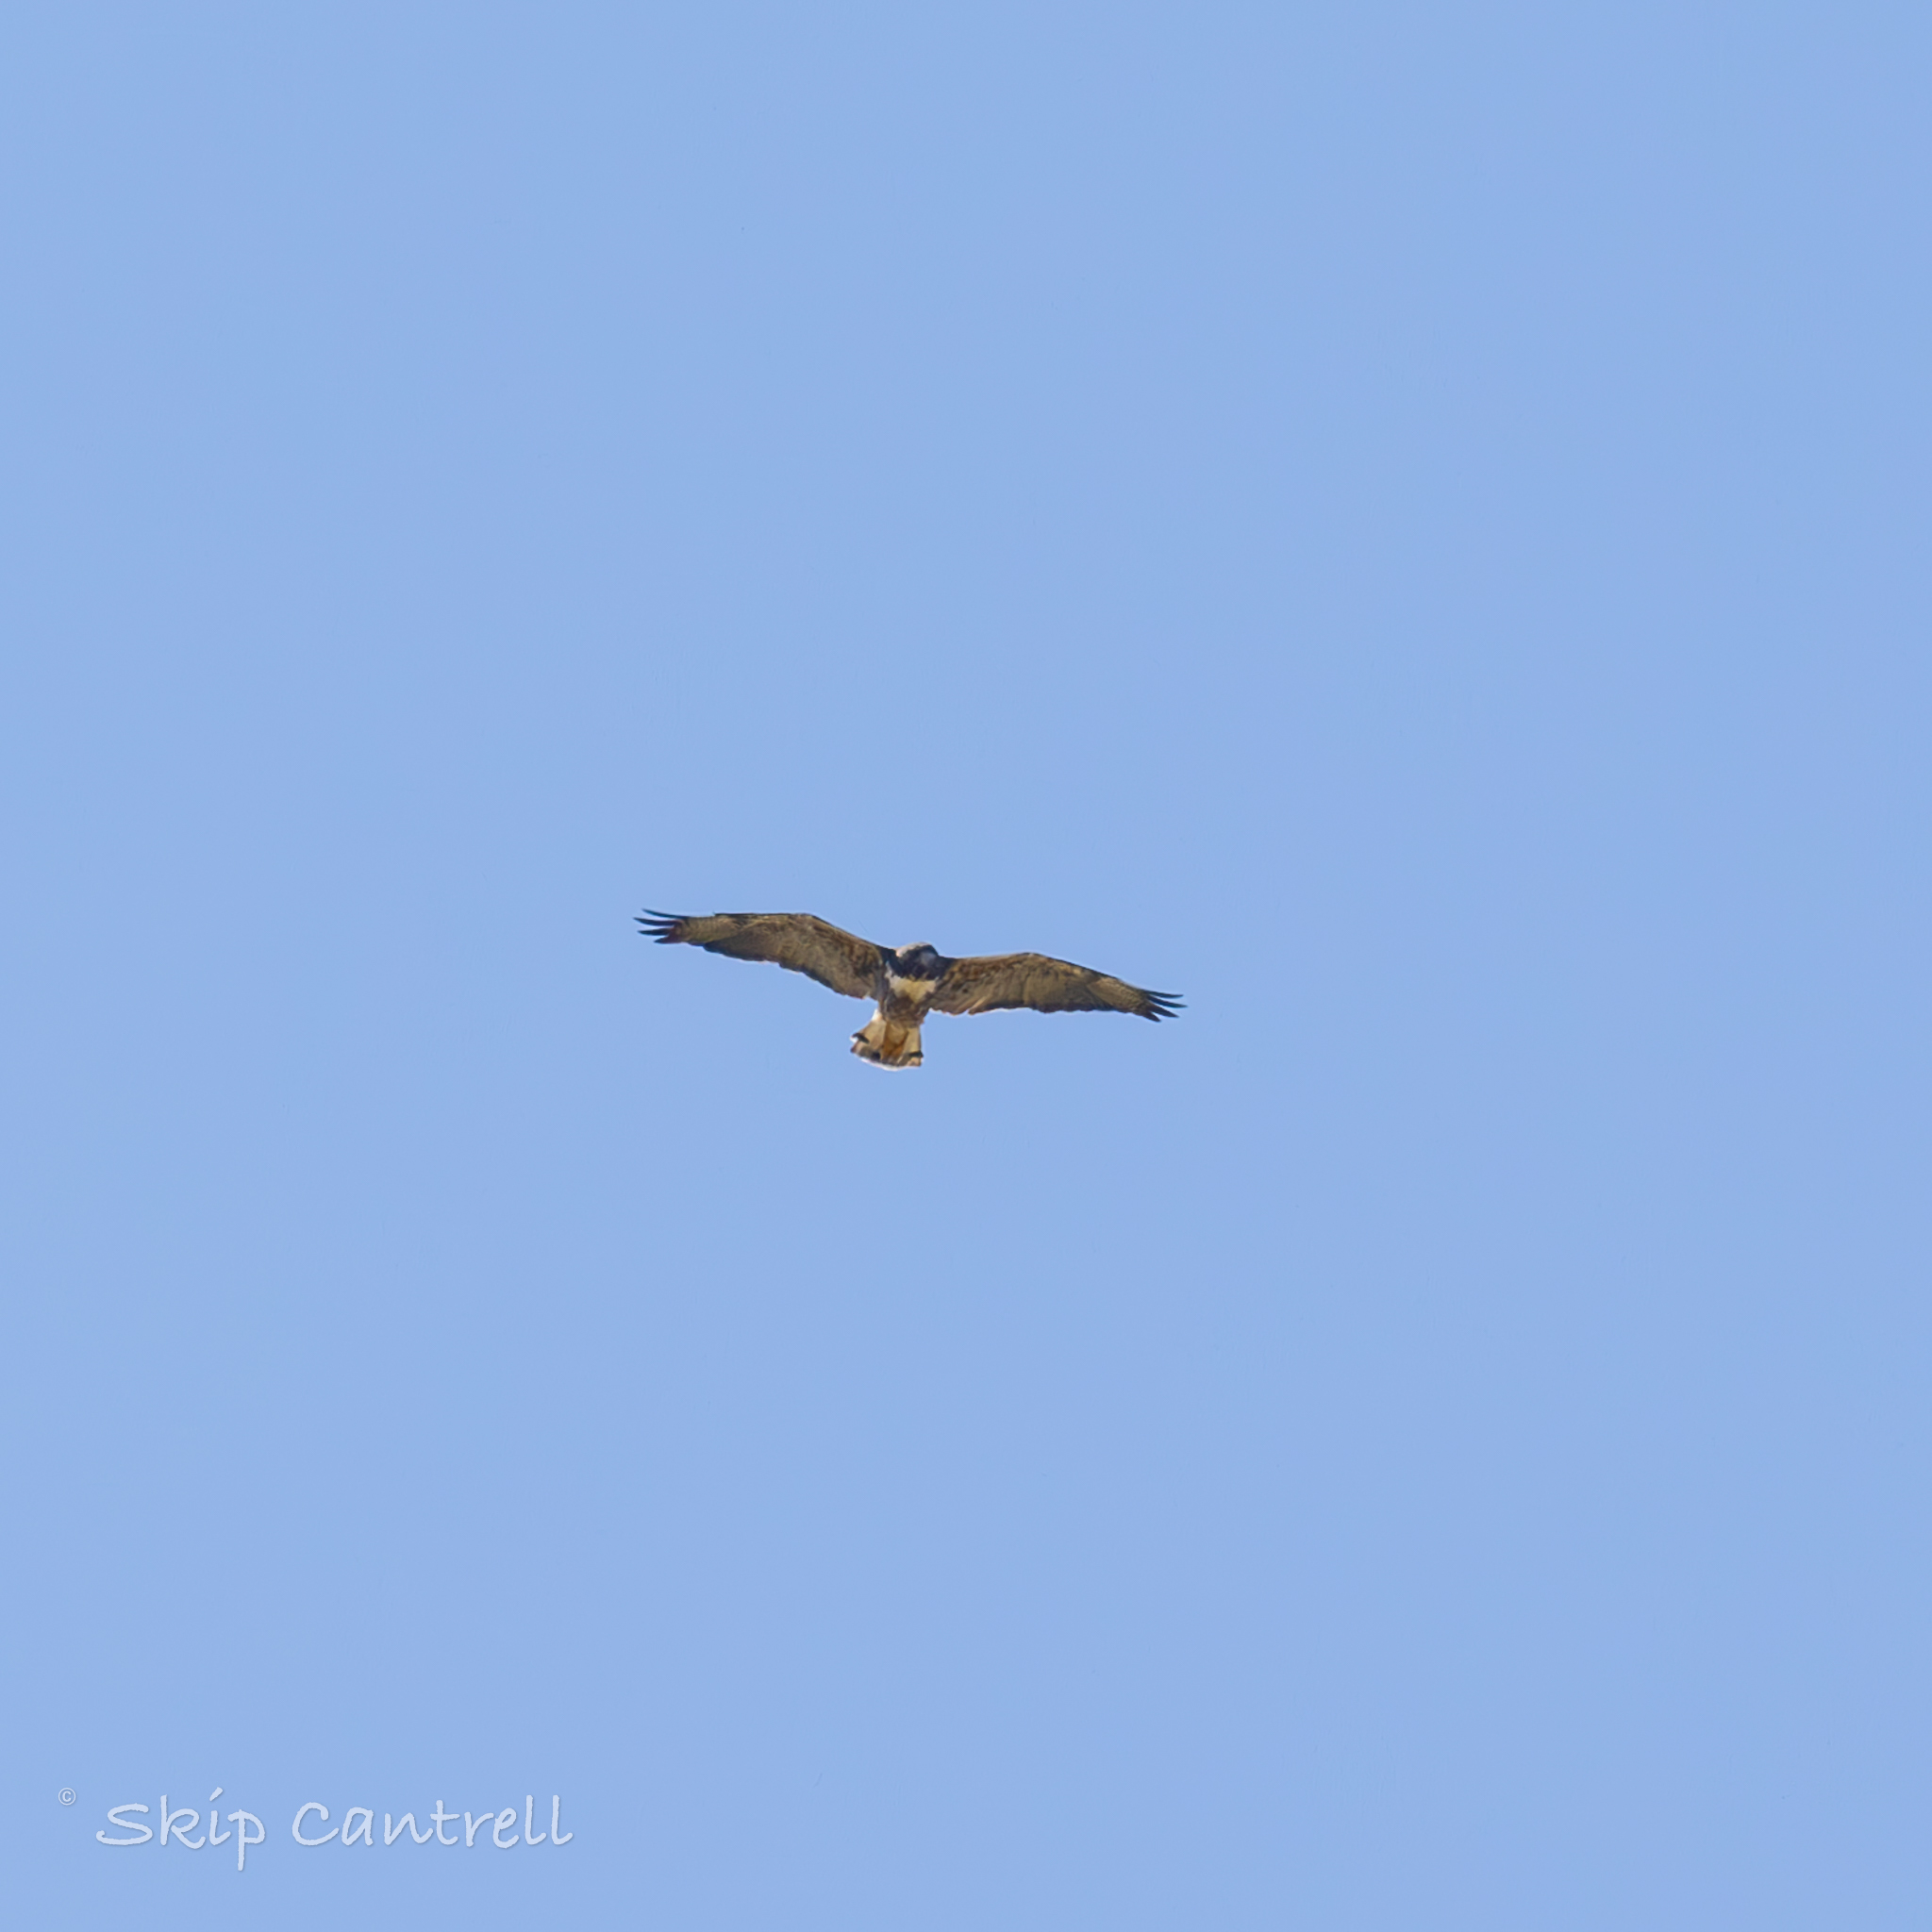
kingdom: Animalia
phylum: Chordata
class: Aves
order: Accipitriformes
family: Accipitridae
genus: Buteo
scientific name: Buteo albicaudatus
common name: White-tailed hawk
